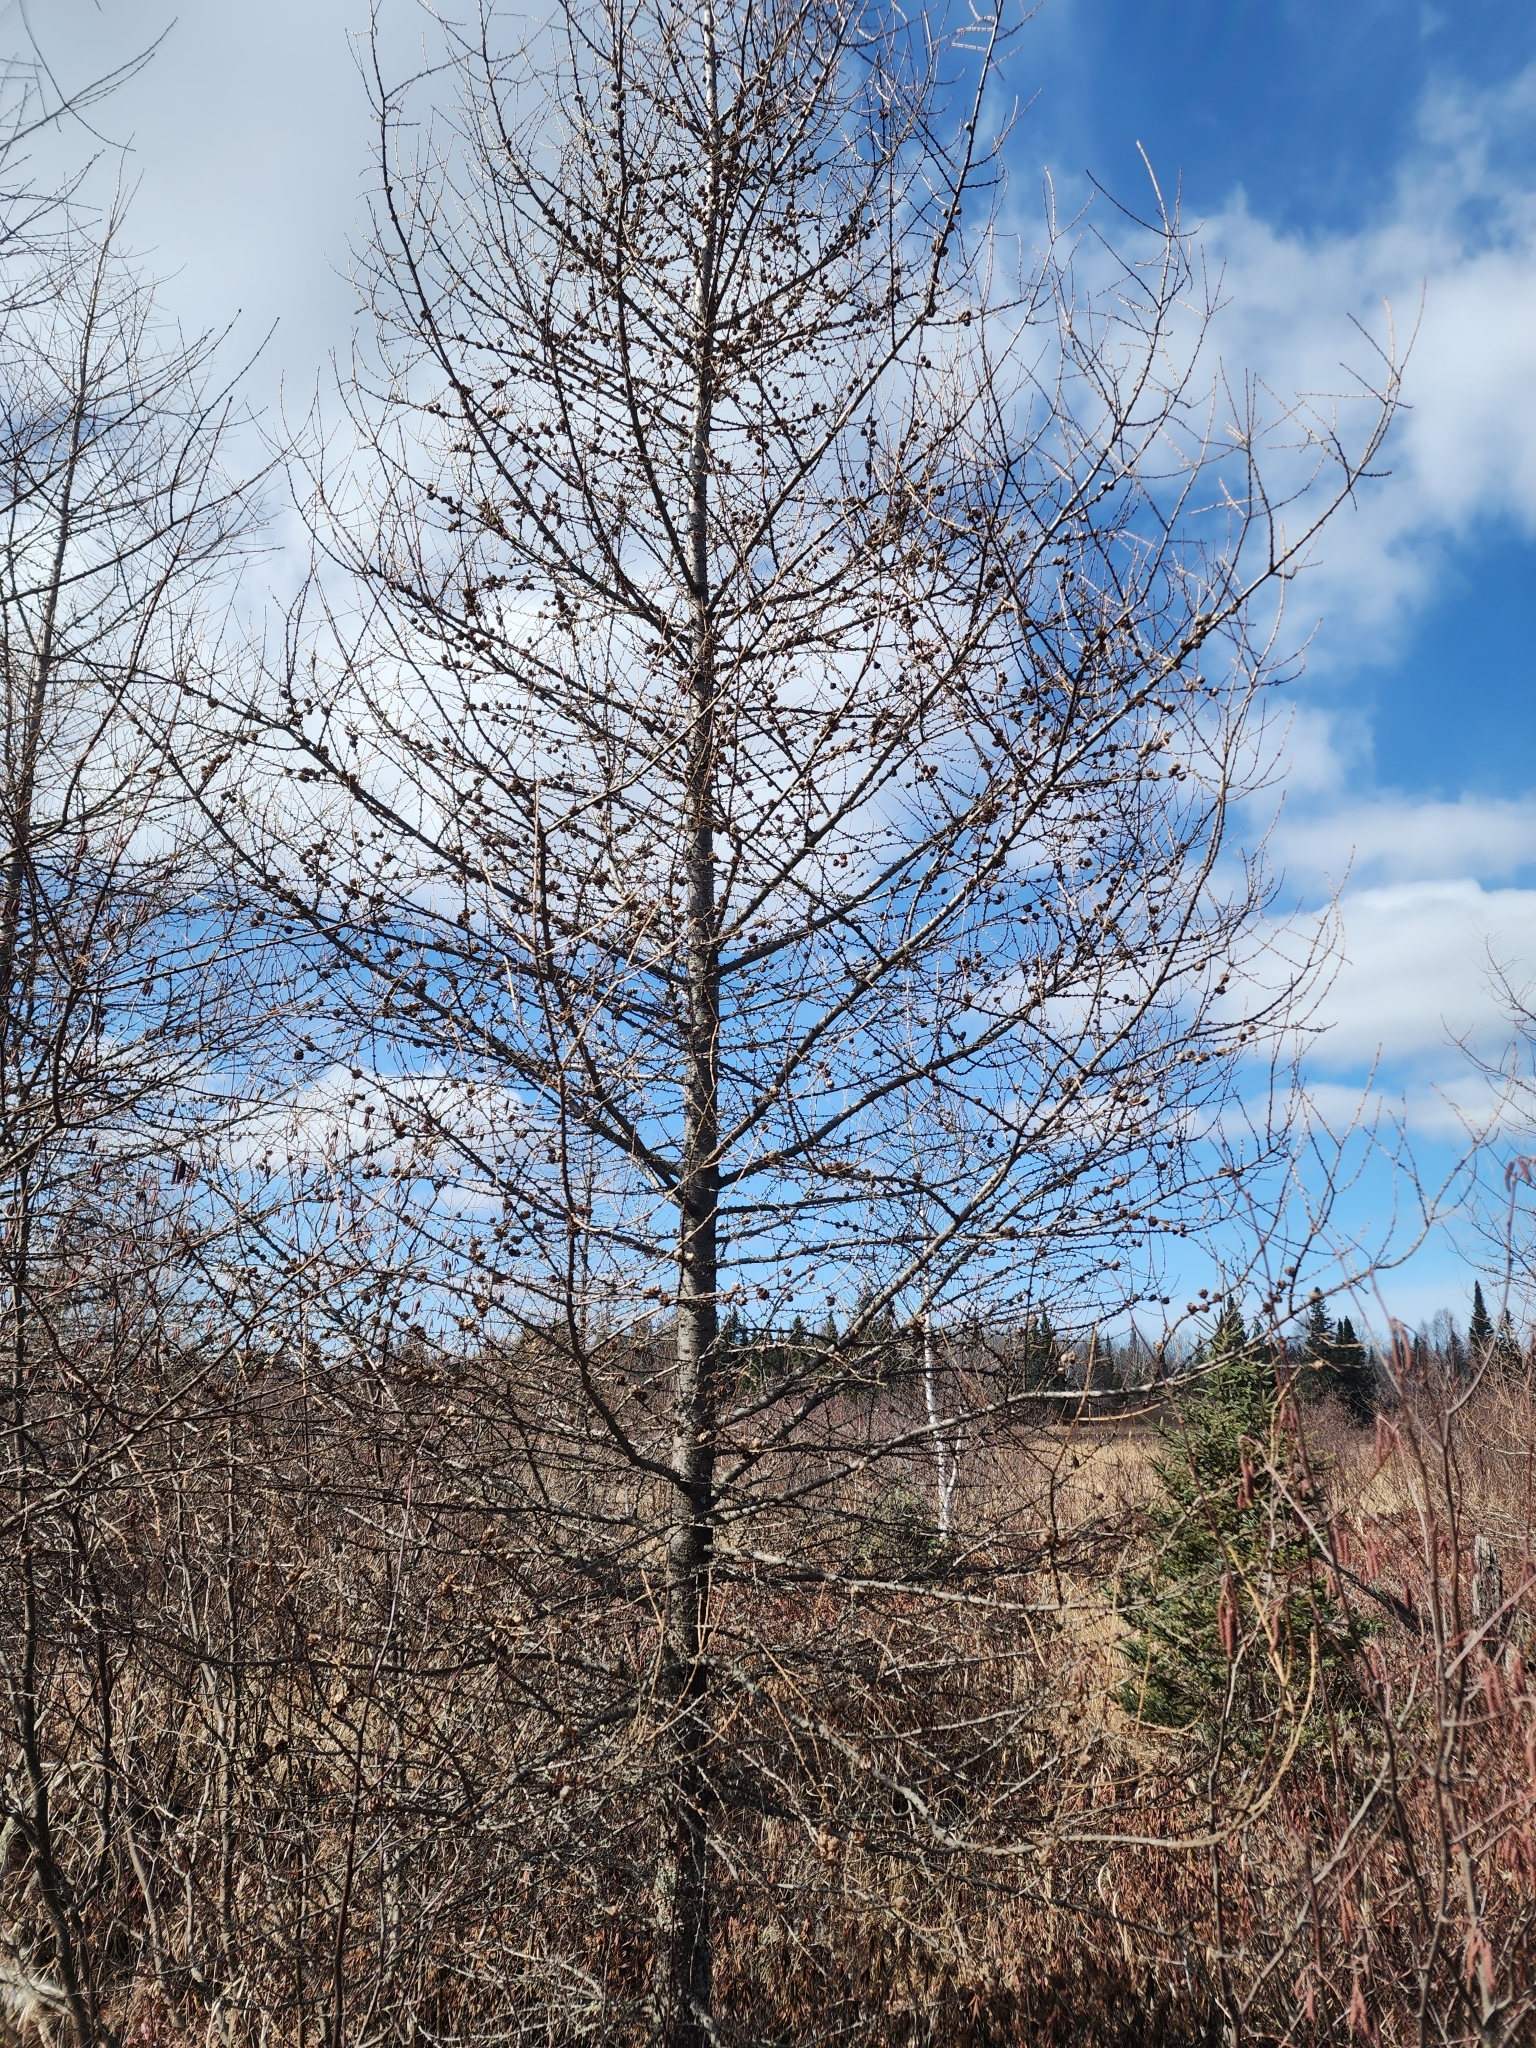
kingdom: Plantae
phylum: Tracheophyta
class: Pinopsida
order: Pinales
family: Pinaceae
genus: Larix
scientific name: Larix laricina
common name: American larch
